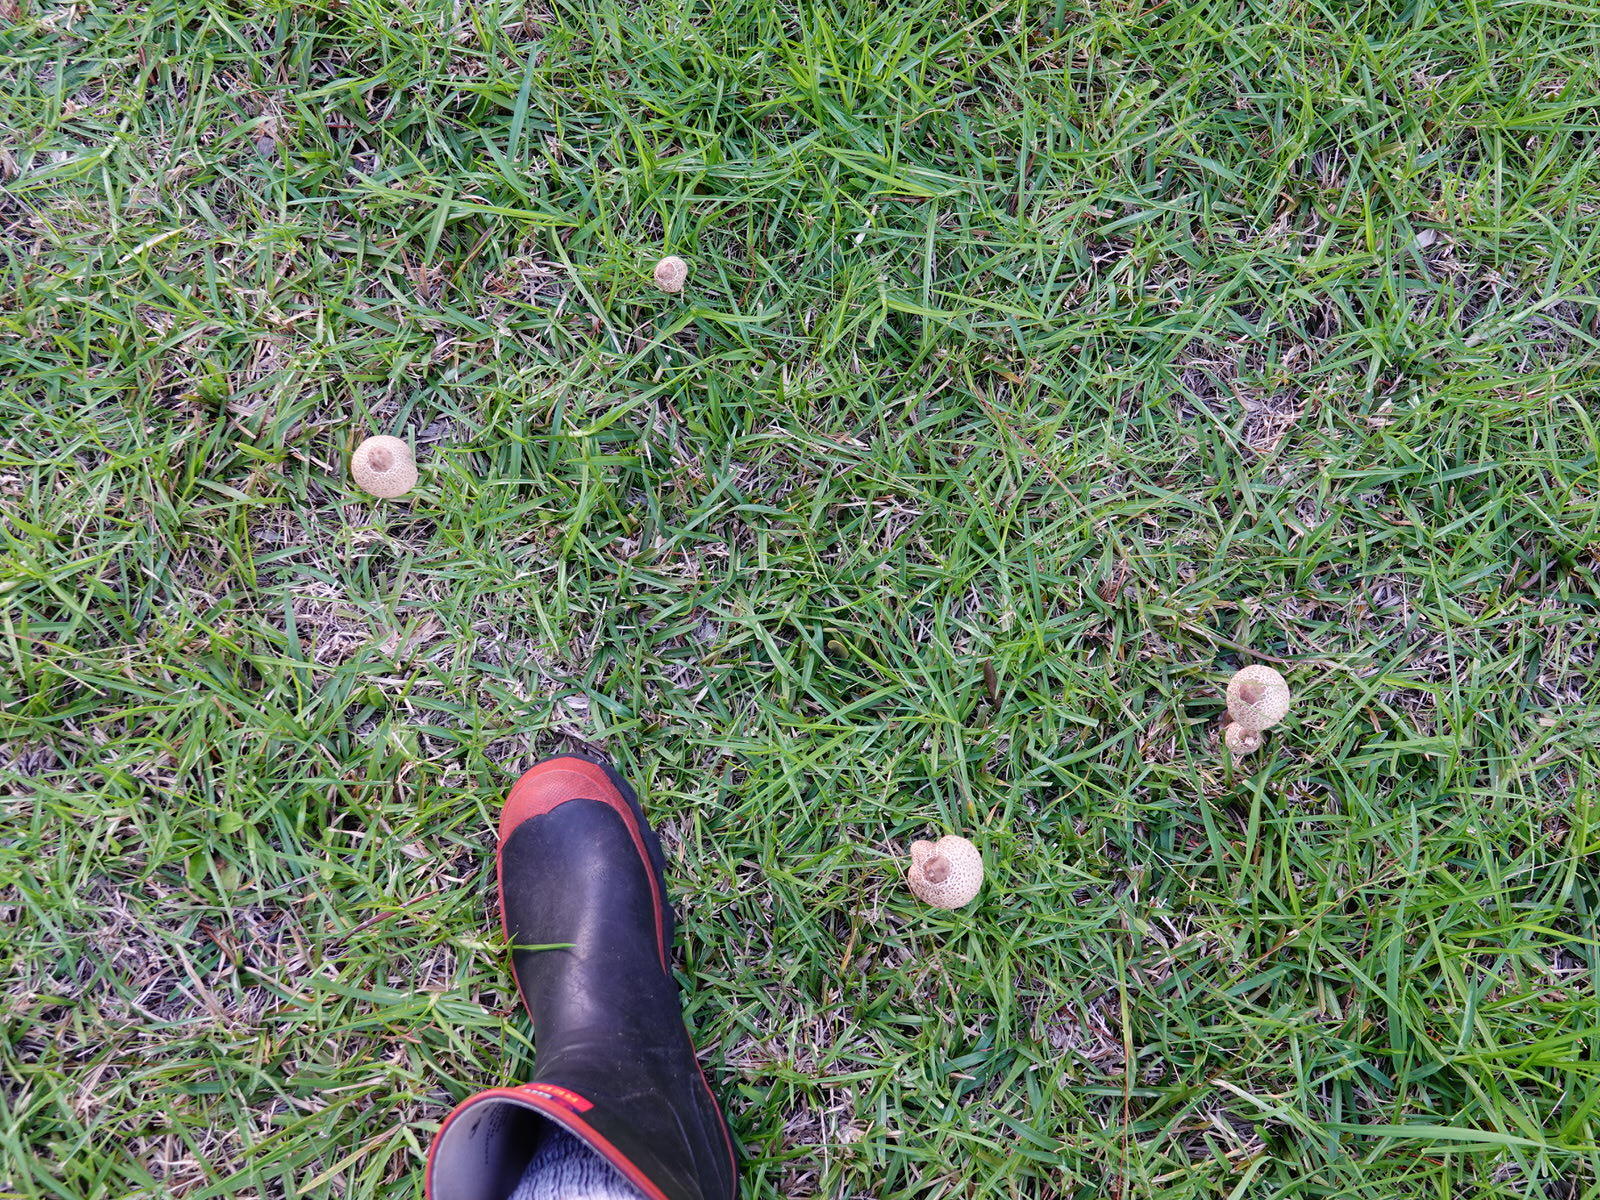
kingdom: Fungi
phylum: Basidiomycota
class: Agaricomycetes
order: Agaricales
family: Agaricaceae
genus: Macrolepiota
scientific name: Macrolepiota clelandii
